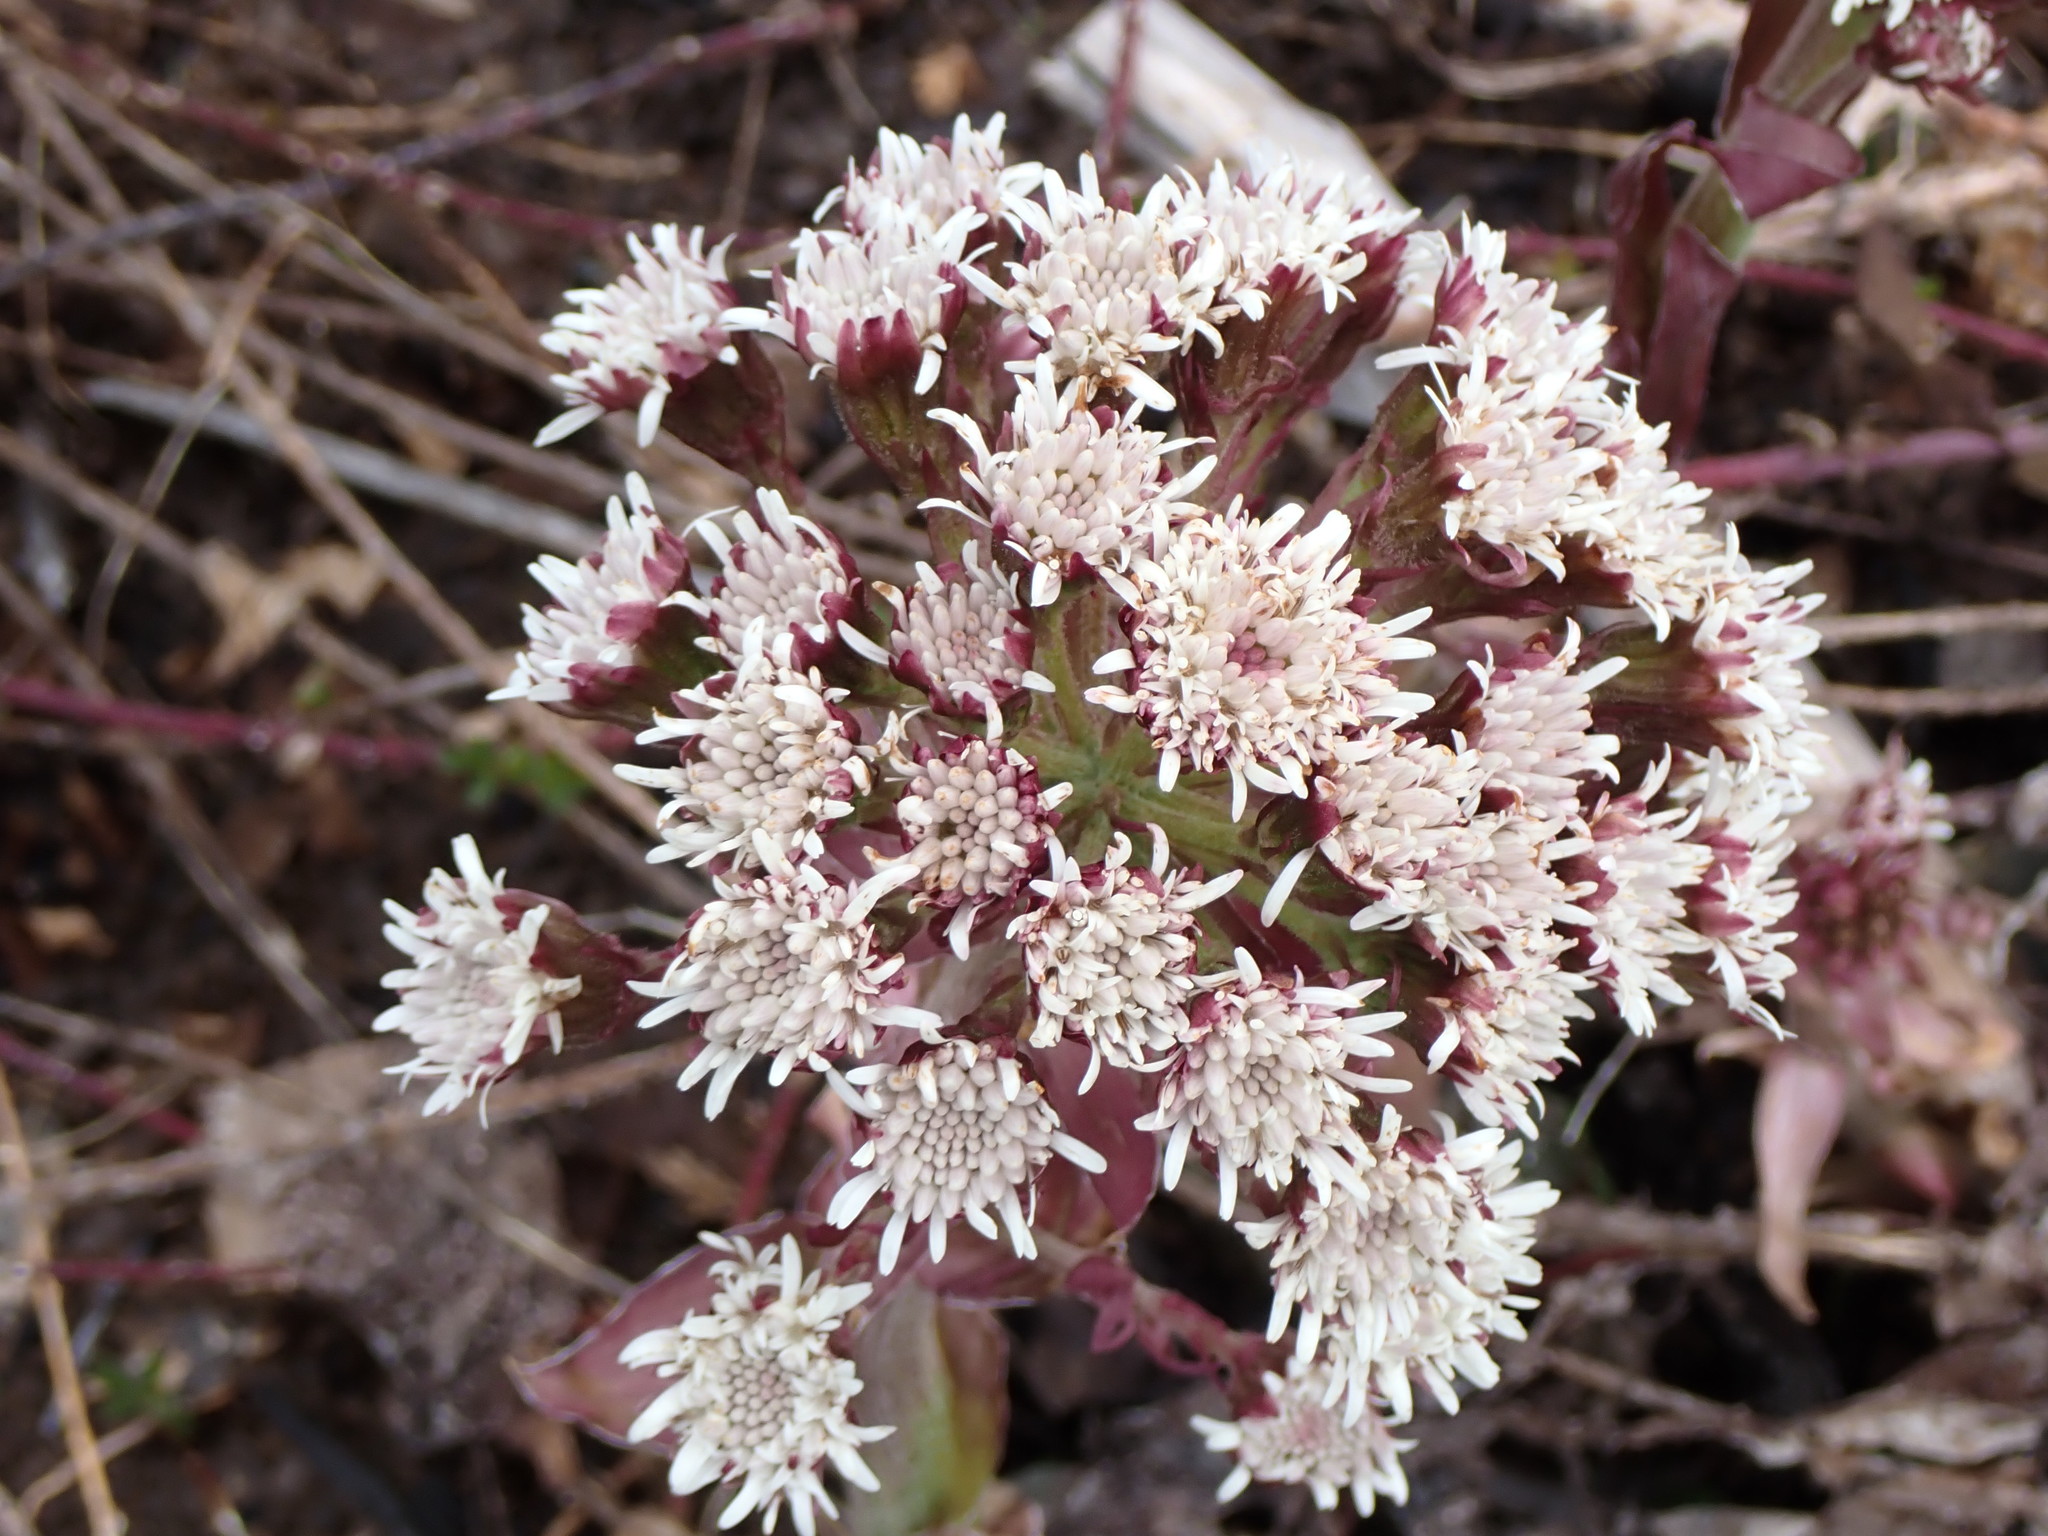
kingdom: Plantae
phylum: Tracheophyta
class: Magnoliopsida
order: Asterales
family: Asteraceae
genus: Petasites
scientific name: Petasites frigidus
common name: Arctic butterbur
